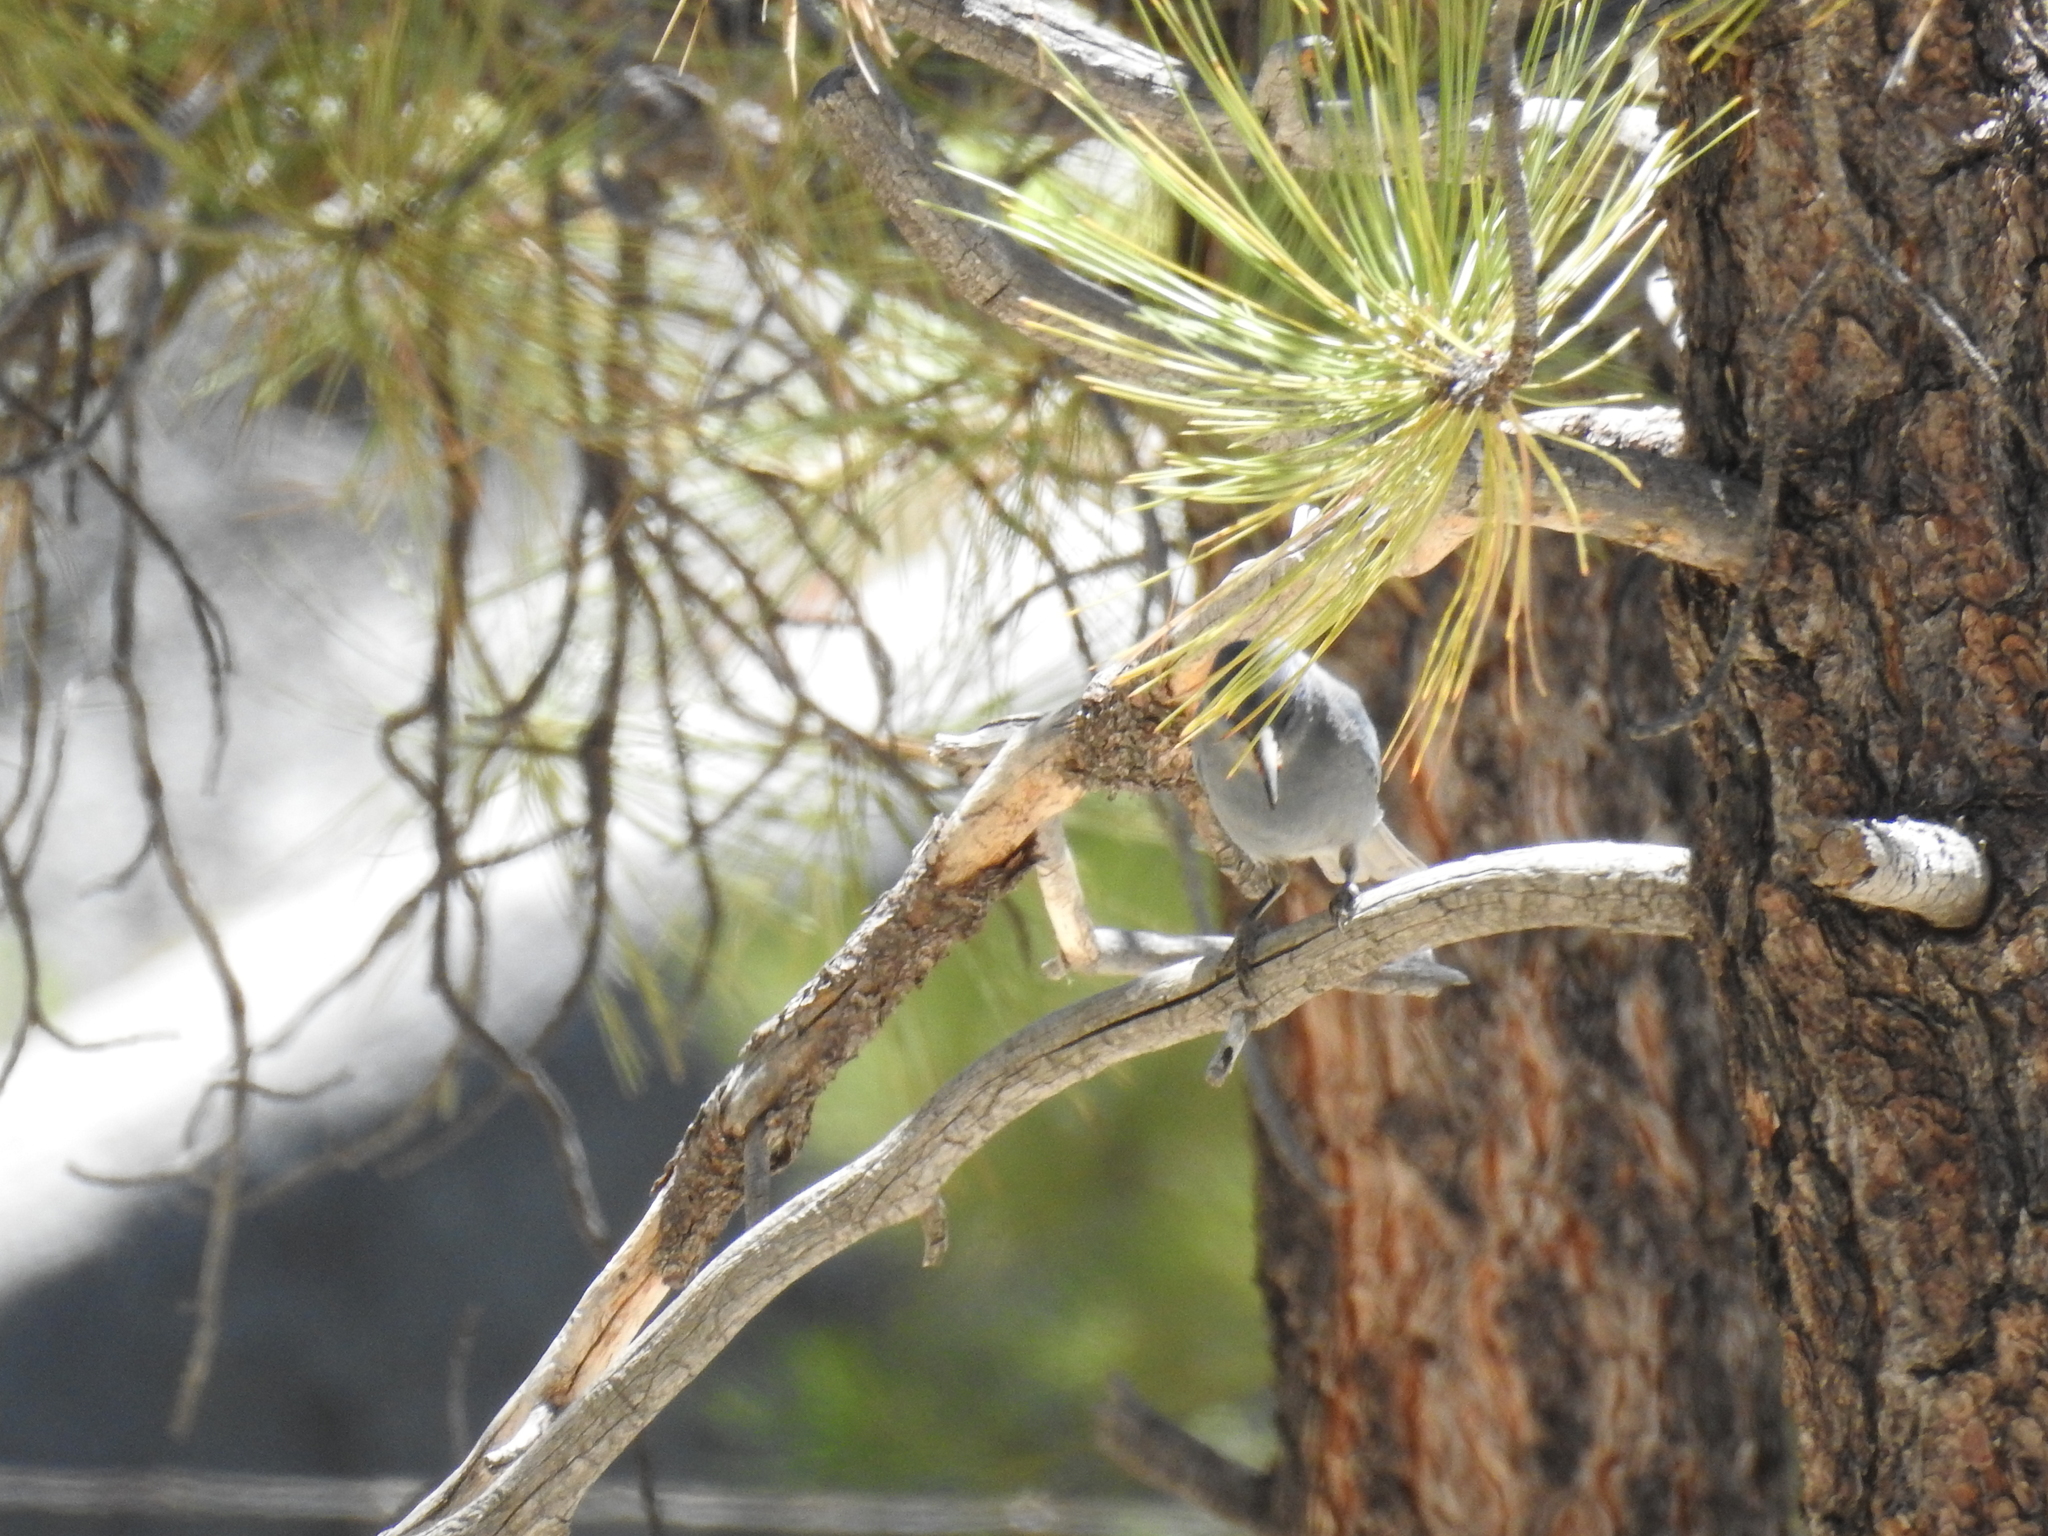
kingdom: Animalia
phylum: Chordata
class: Aves
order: Passeriformes
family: Corvidae
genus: Gymnorhinus
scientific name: Gymnorhinus cyanocephalus
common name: Pinyon jay
